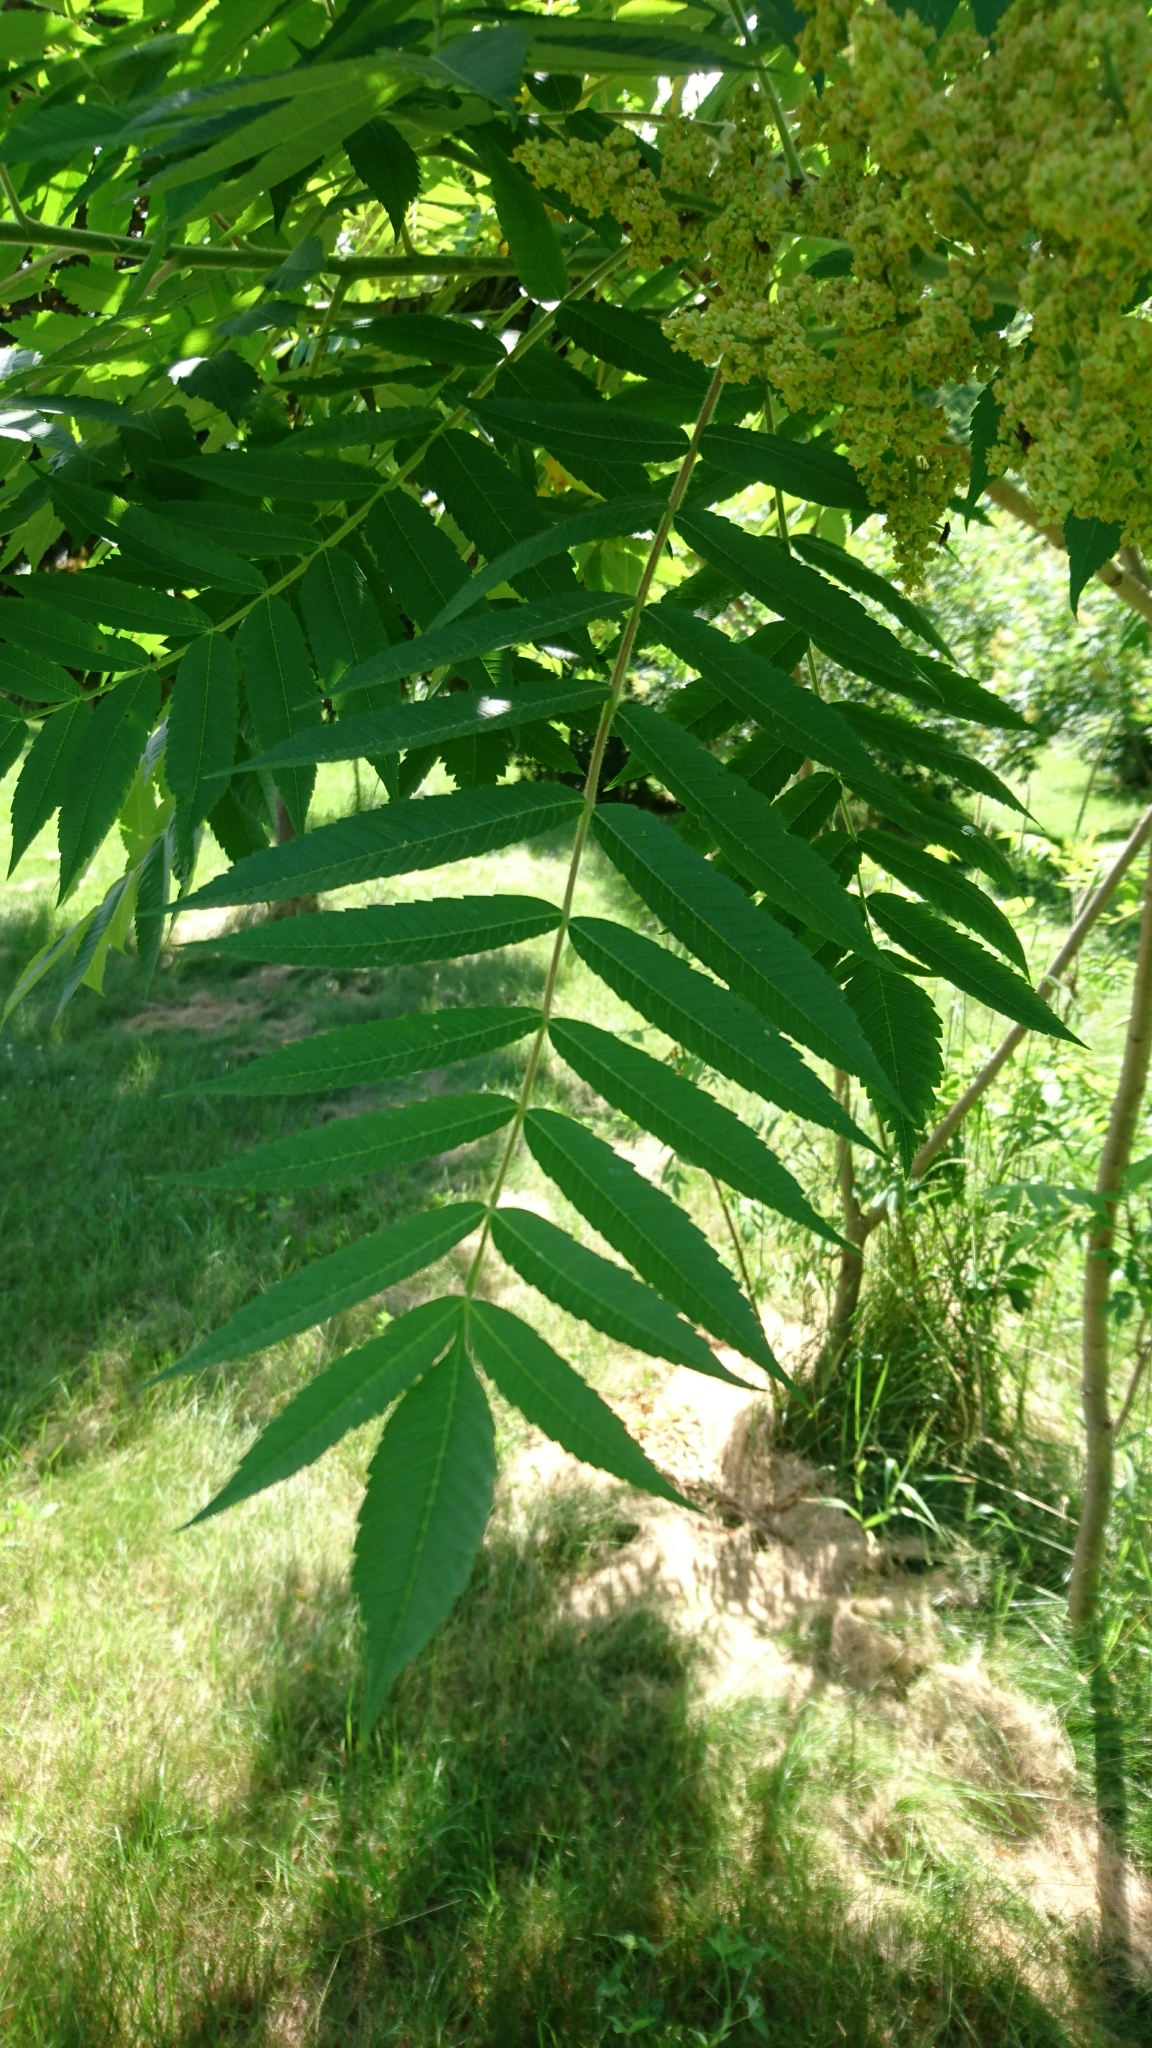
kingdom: Plantae
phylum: Tracheophyta
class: Magnoliopsida
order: Sapindales
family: Anacardiaceae
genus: Rhus
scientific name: Rhus typhina
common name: Staghorn sumac
